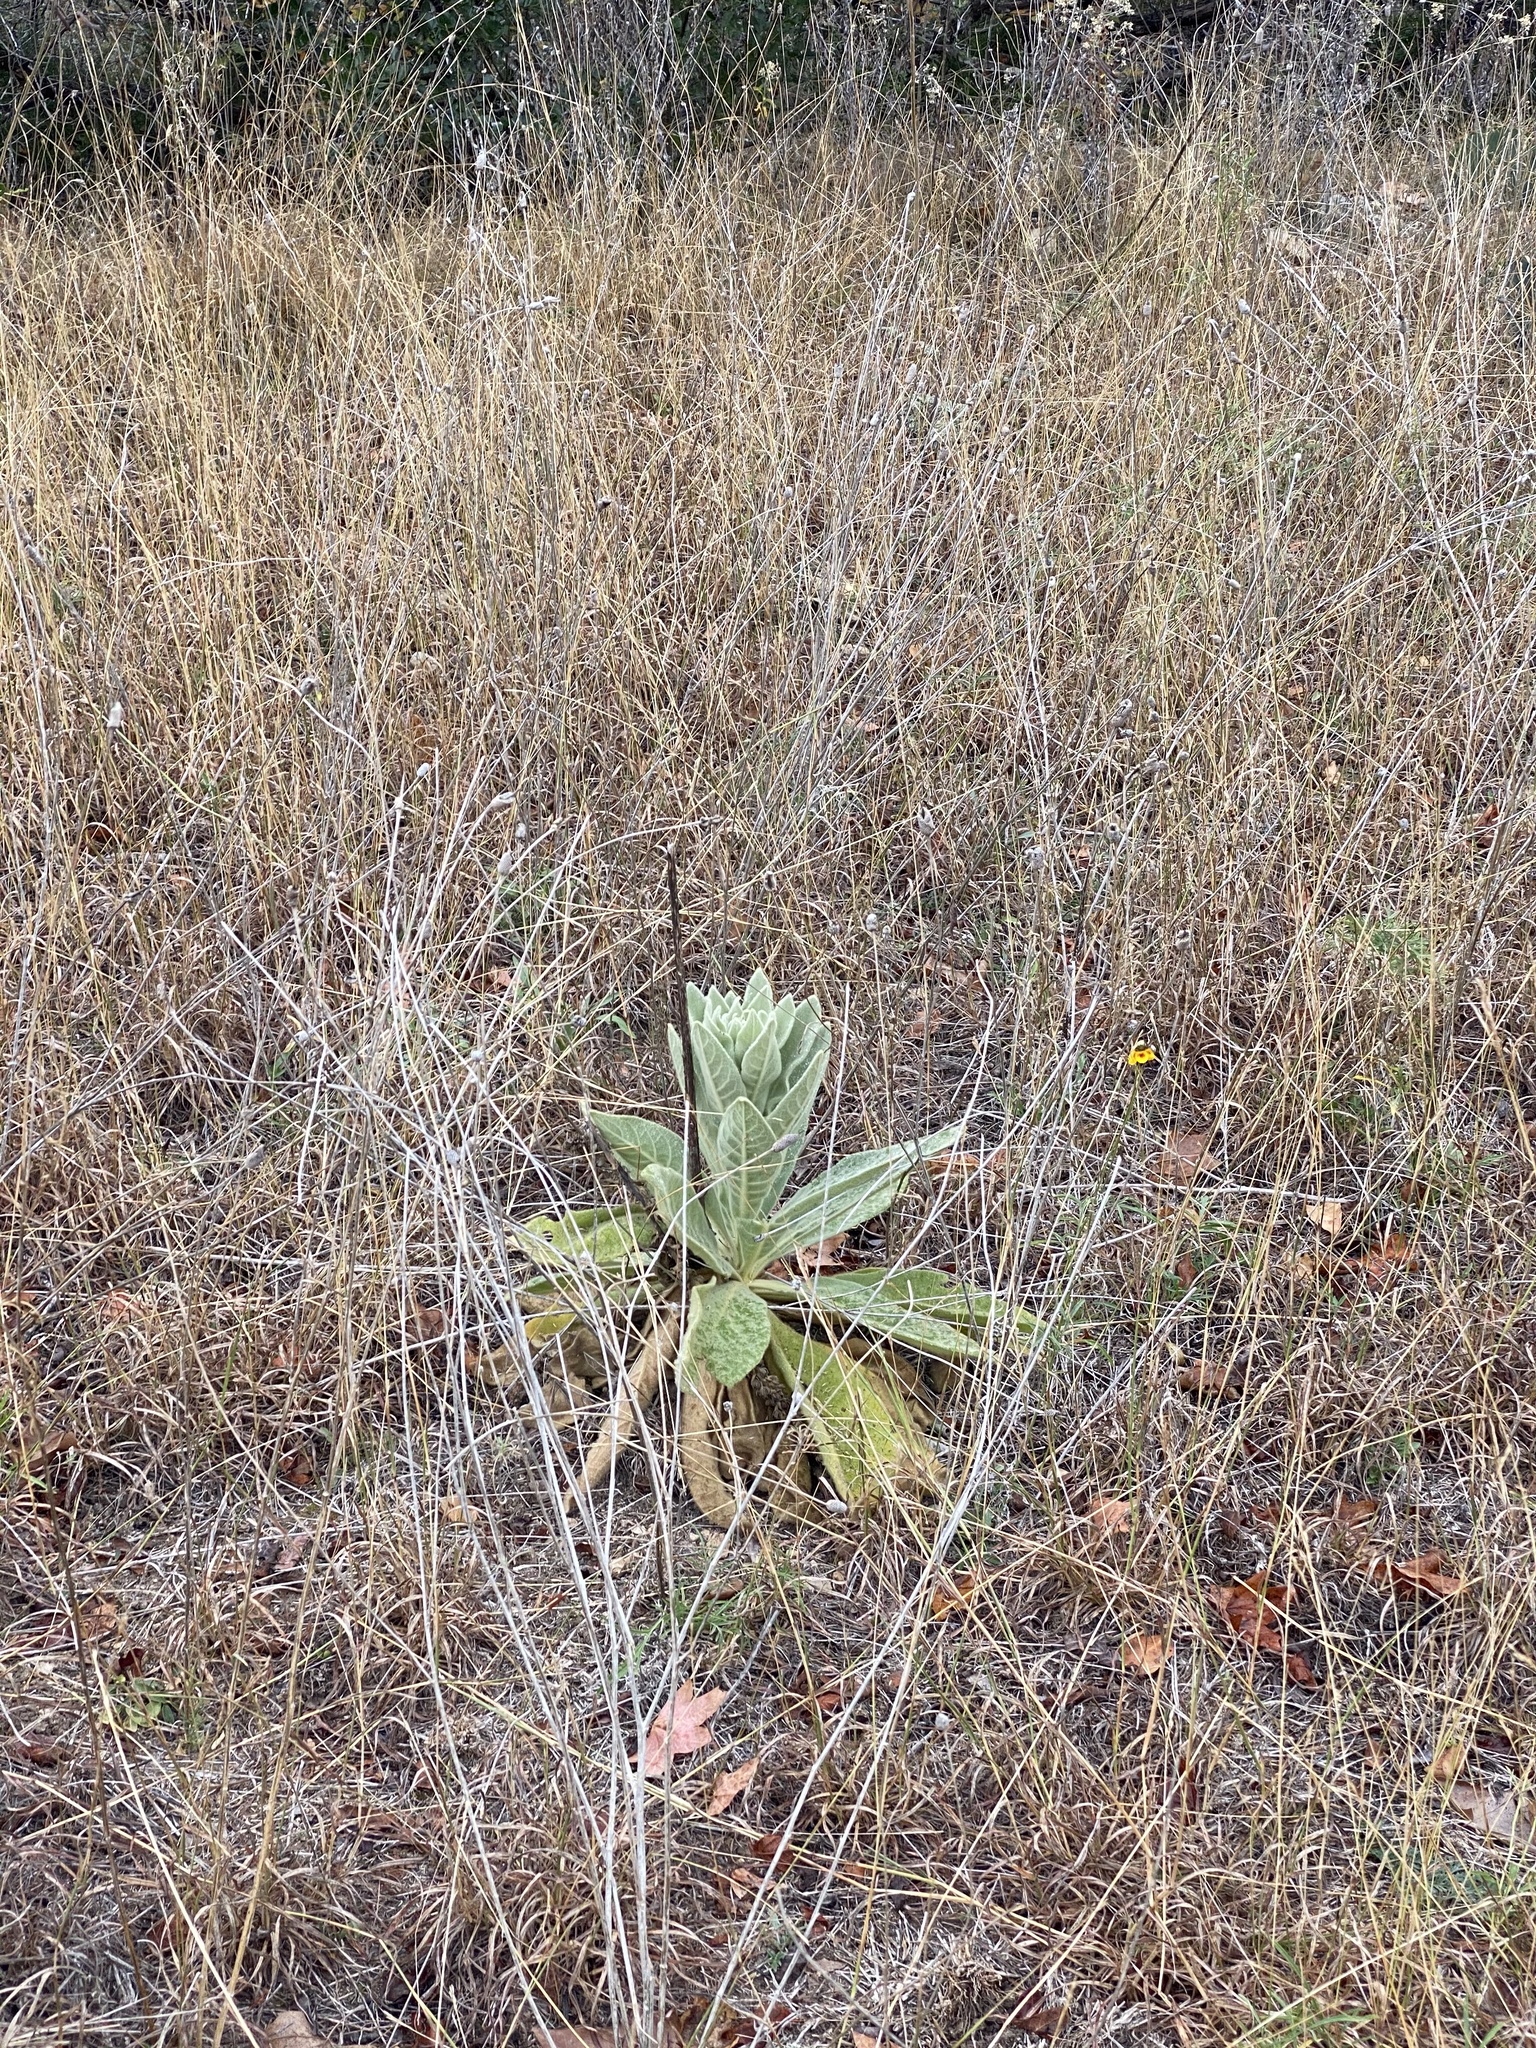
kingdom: Plantae
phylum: Tracheophyta
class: Magnoliopsida
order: Lamiales
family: Scrophulariaceae
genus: Verbascum
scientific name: Verbascum thapsus
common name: Common mullein
